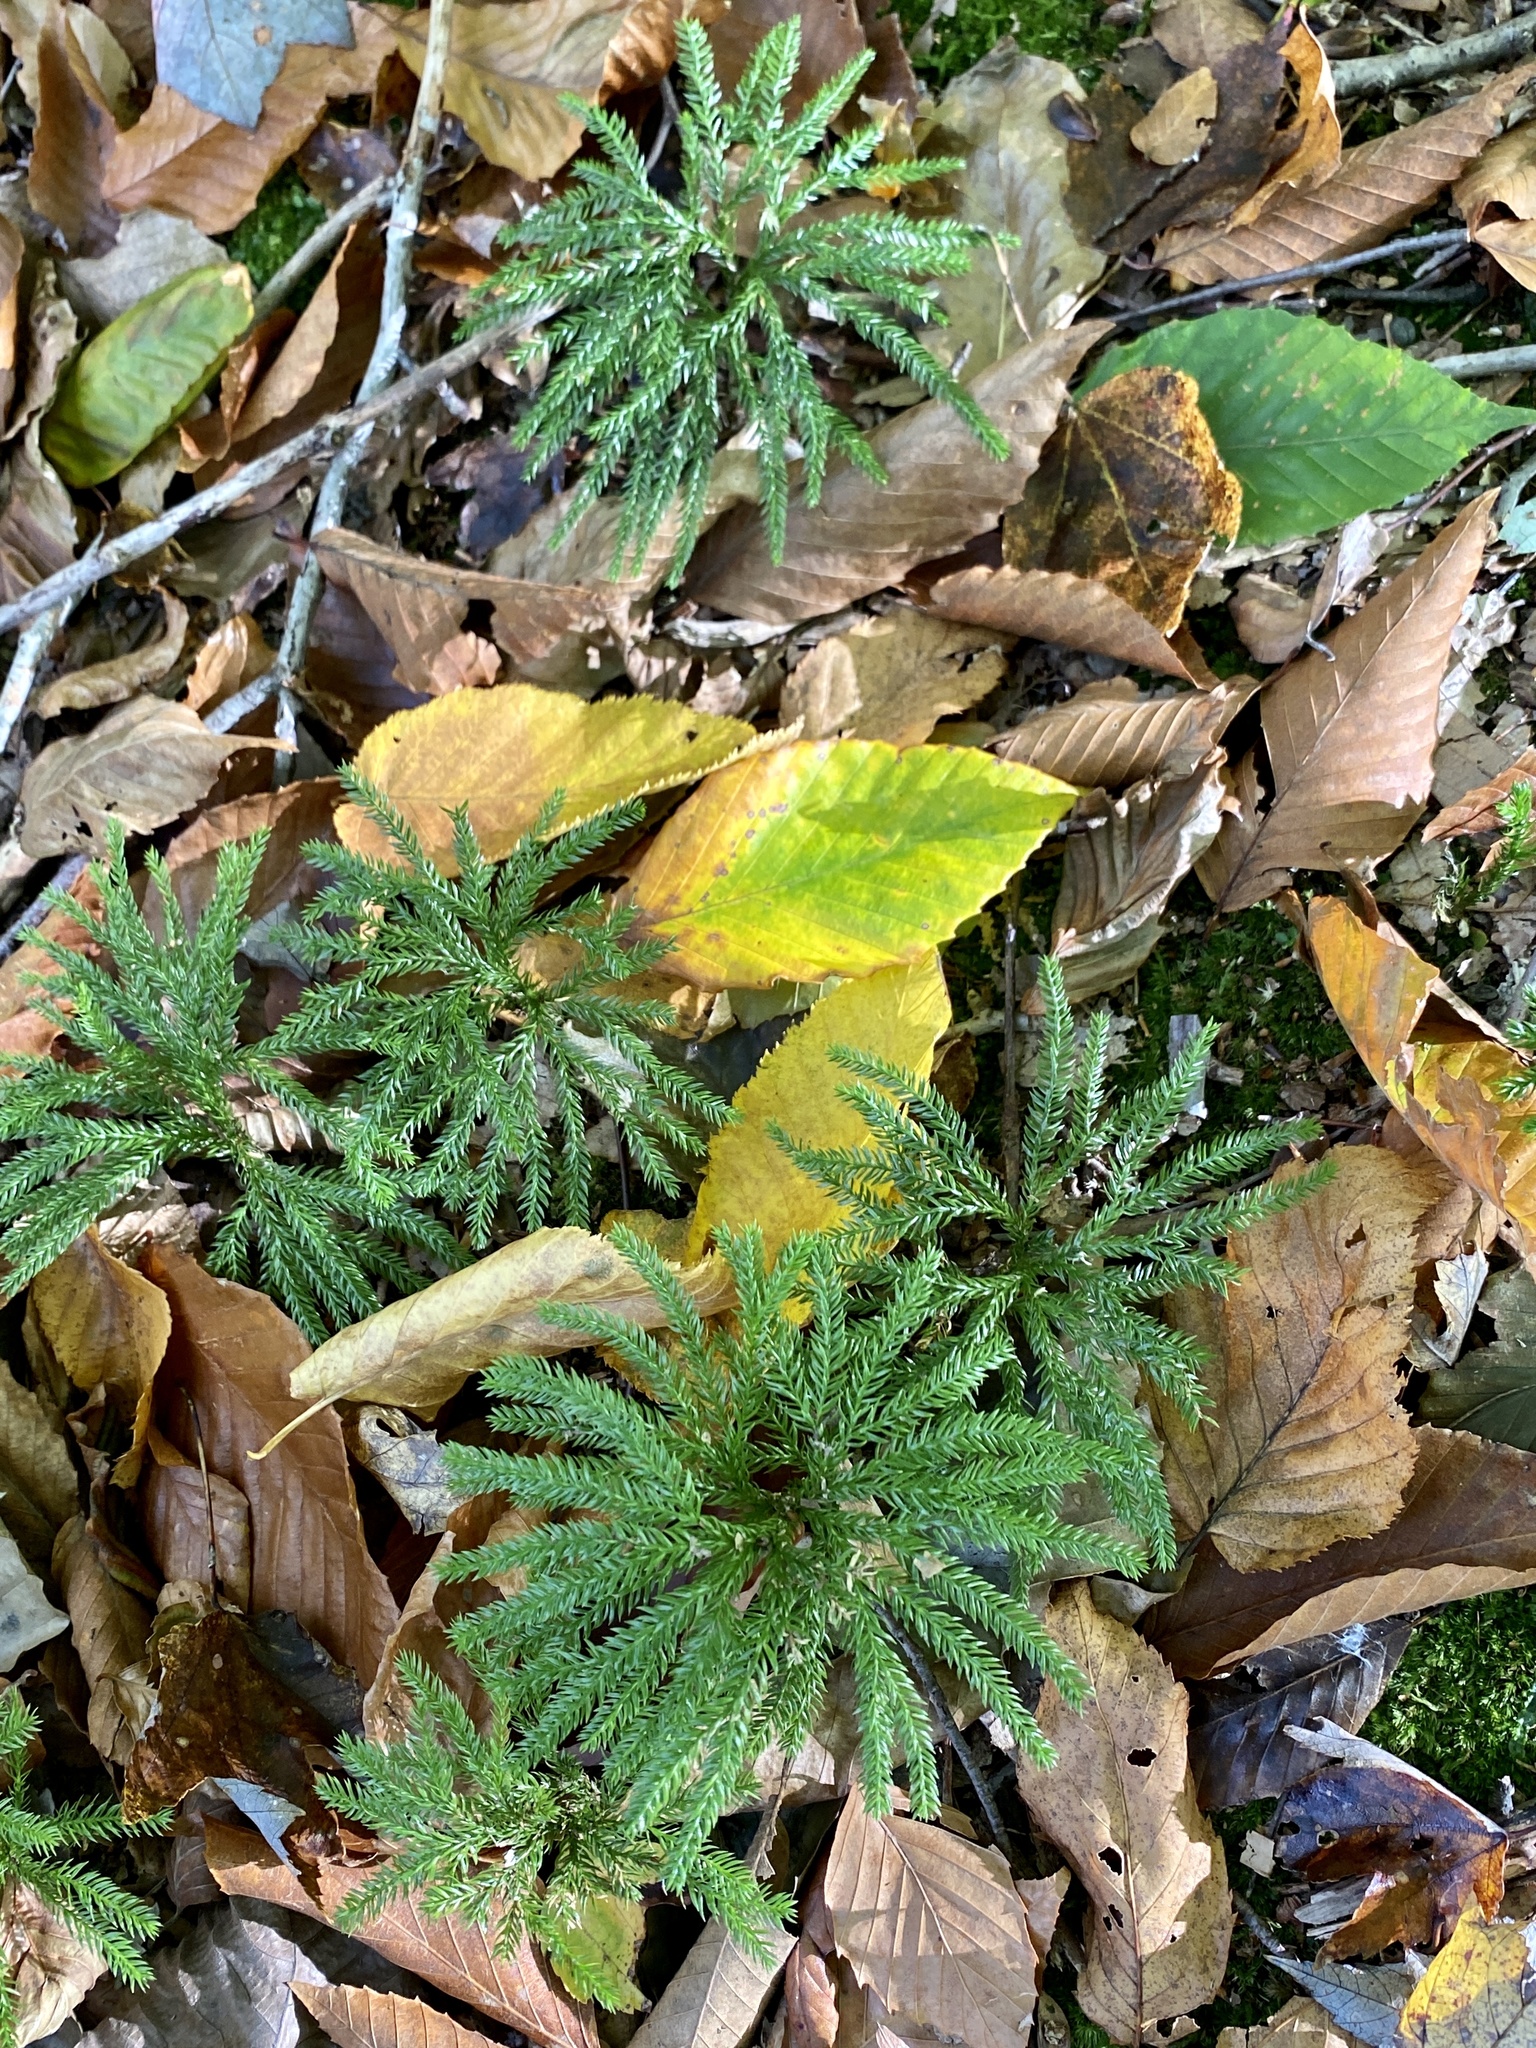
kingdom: Plantae
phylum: Tracheophyta
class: Lycopodiopsida
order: Lycopodiales
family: Lycopodiaceae
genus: Dendrolycopodium
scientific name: Dendrolycopodium obscurum
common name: Common ground-pine
